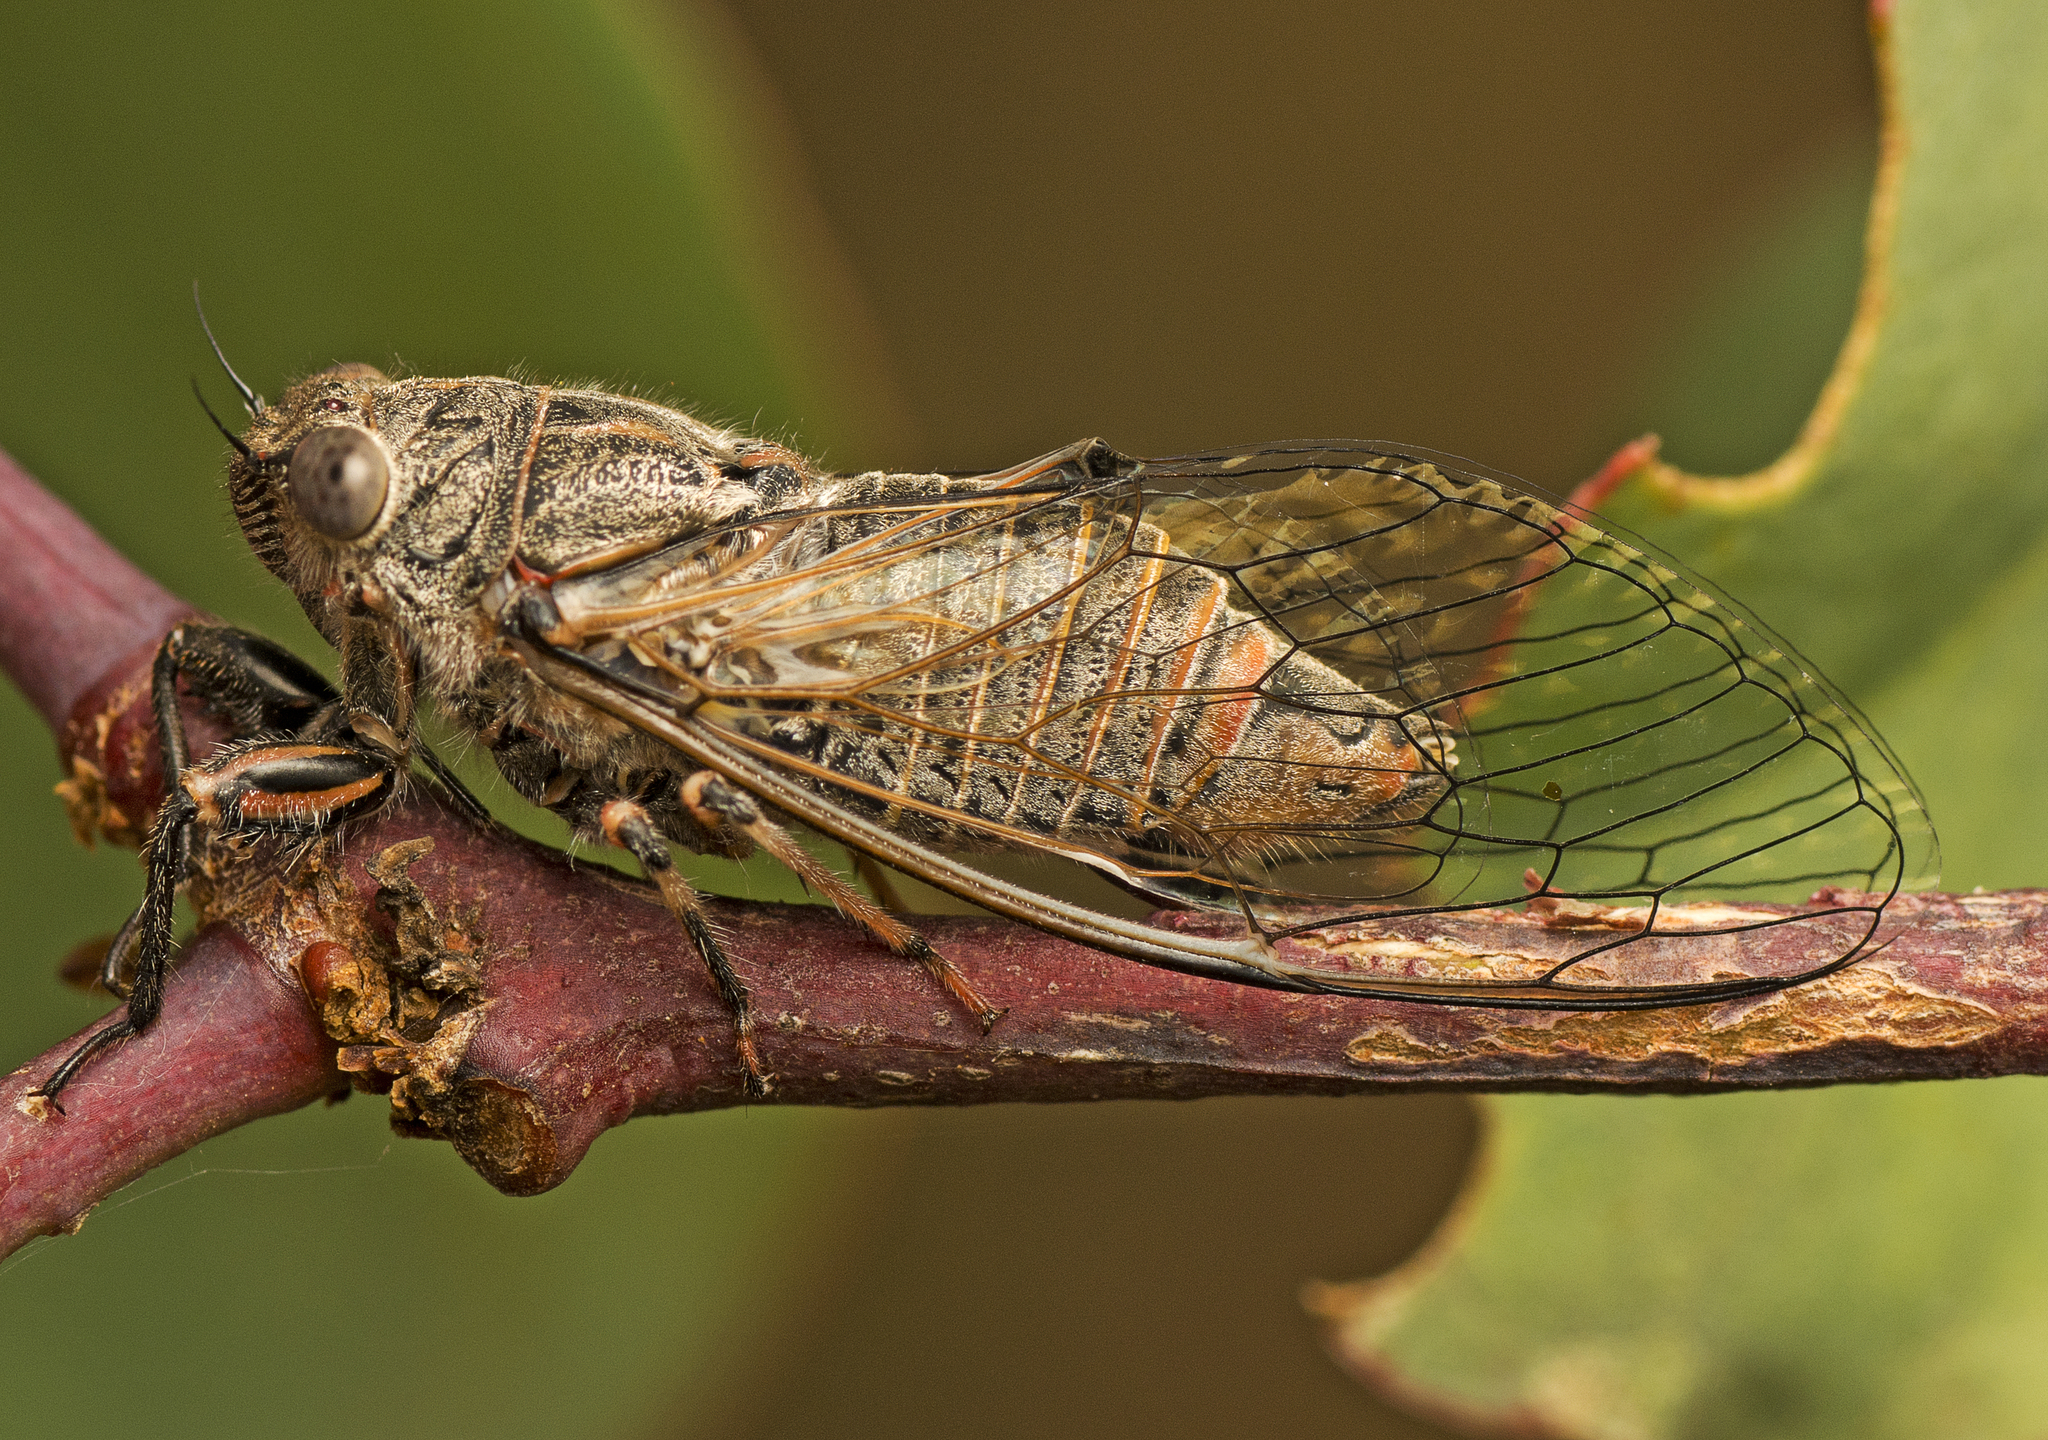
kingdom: Animalia
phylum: Arthropoda
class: Insecta
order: Hemiptera
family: Cicadidae
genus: Atrapsalta
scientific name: Atrapsalta furcilla
